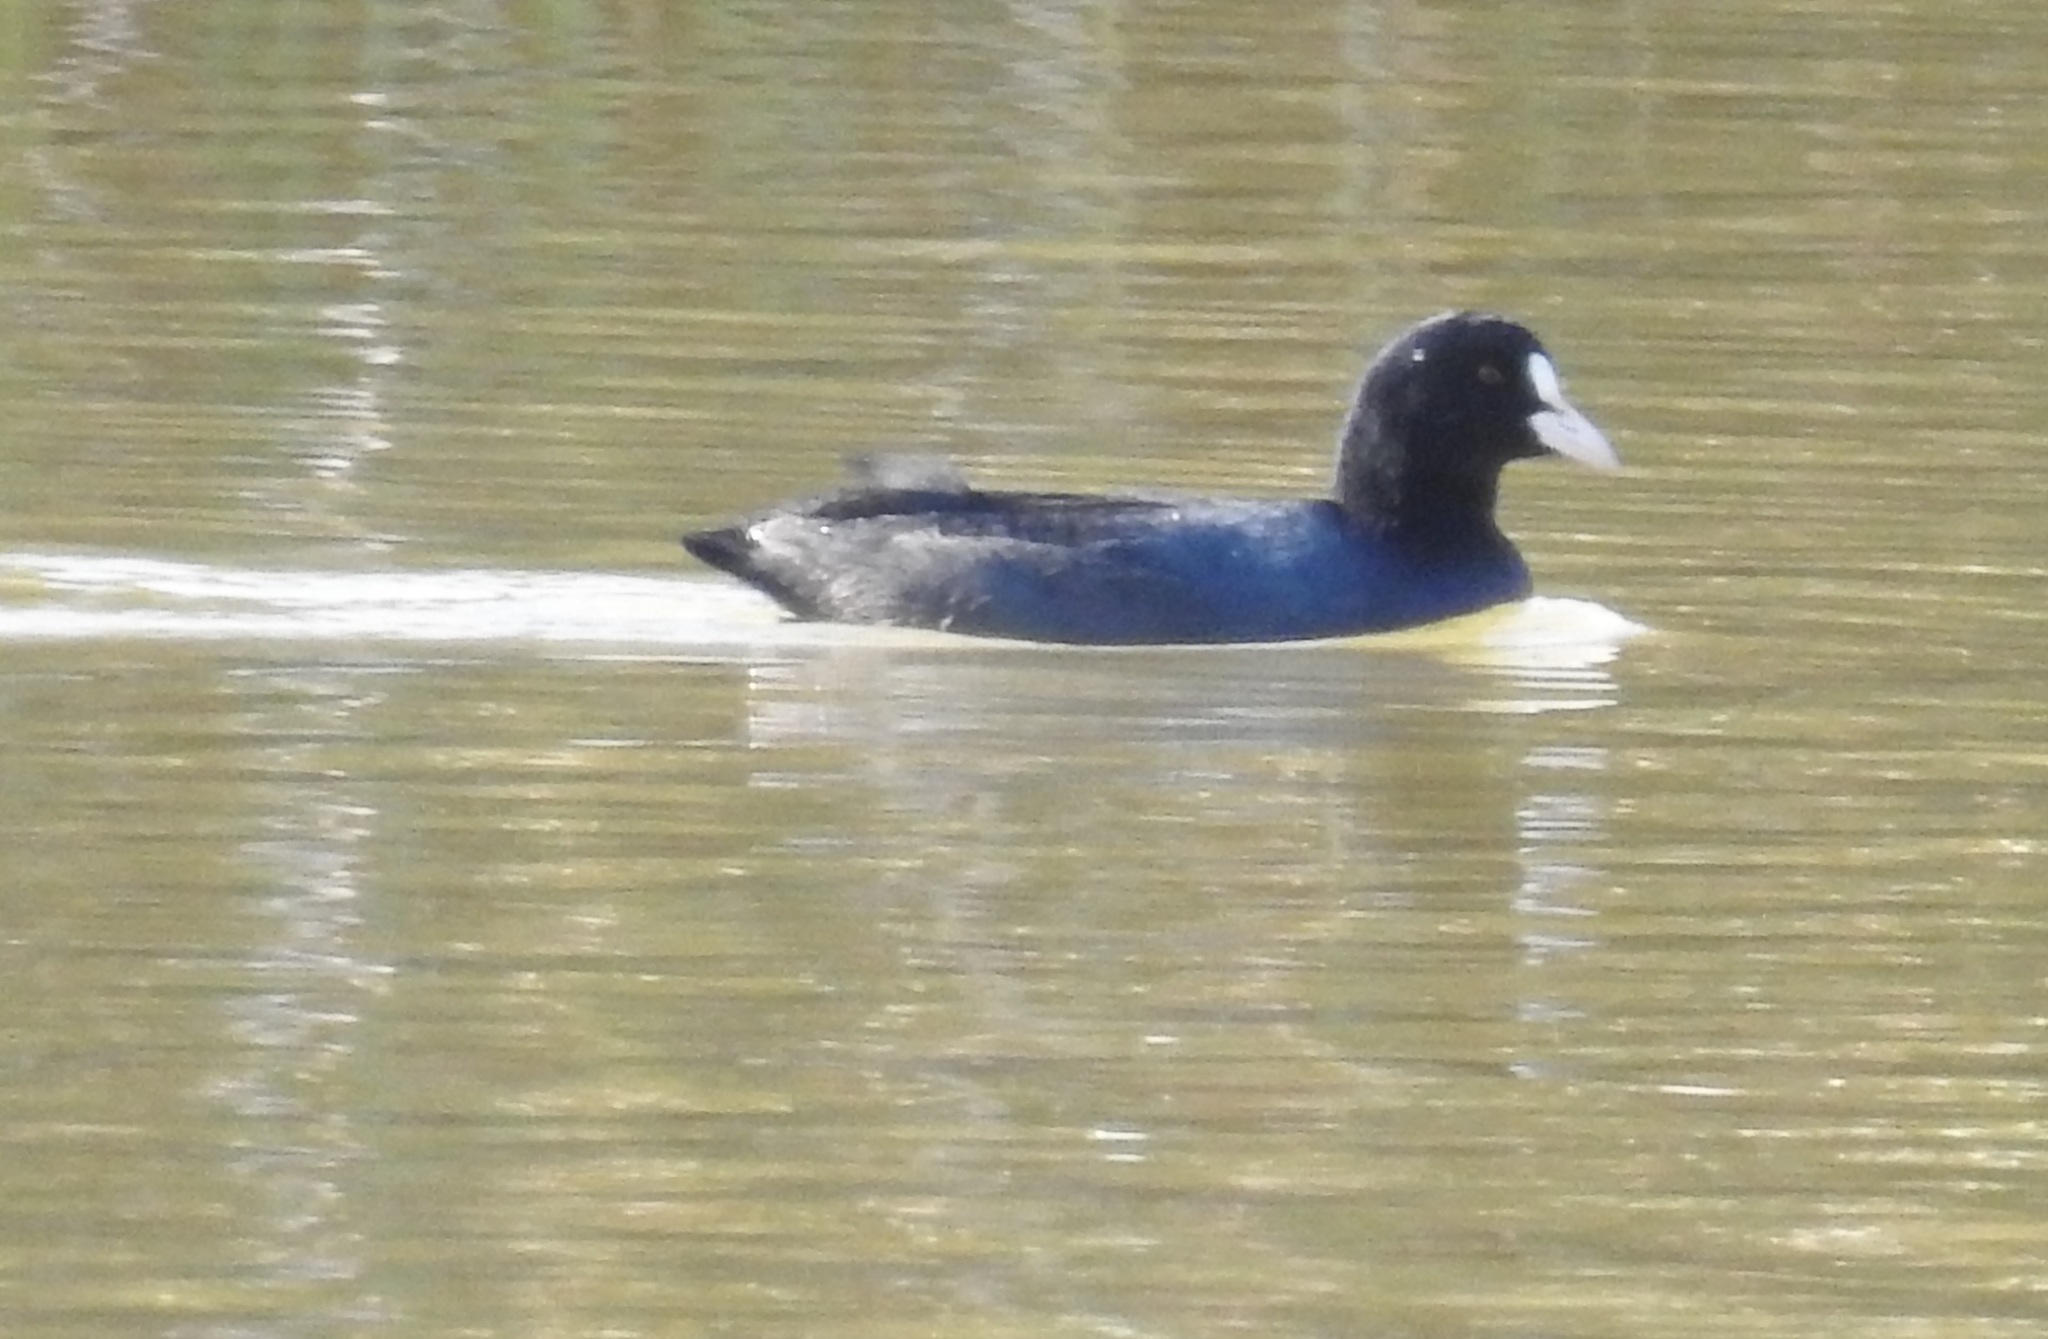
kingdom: Animalia
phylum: Chordata
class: Aves
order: Gruiformes
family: Rallidae
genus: Fulica
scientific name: Fulica atra
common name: Eurasian coot
